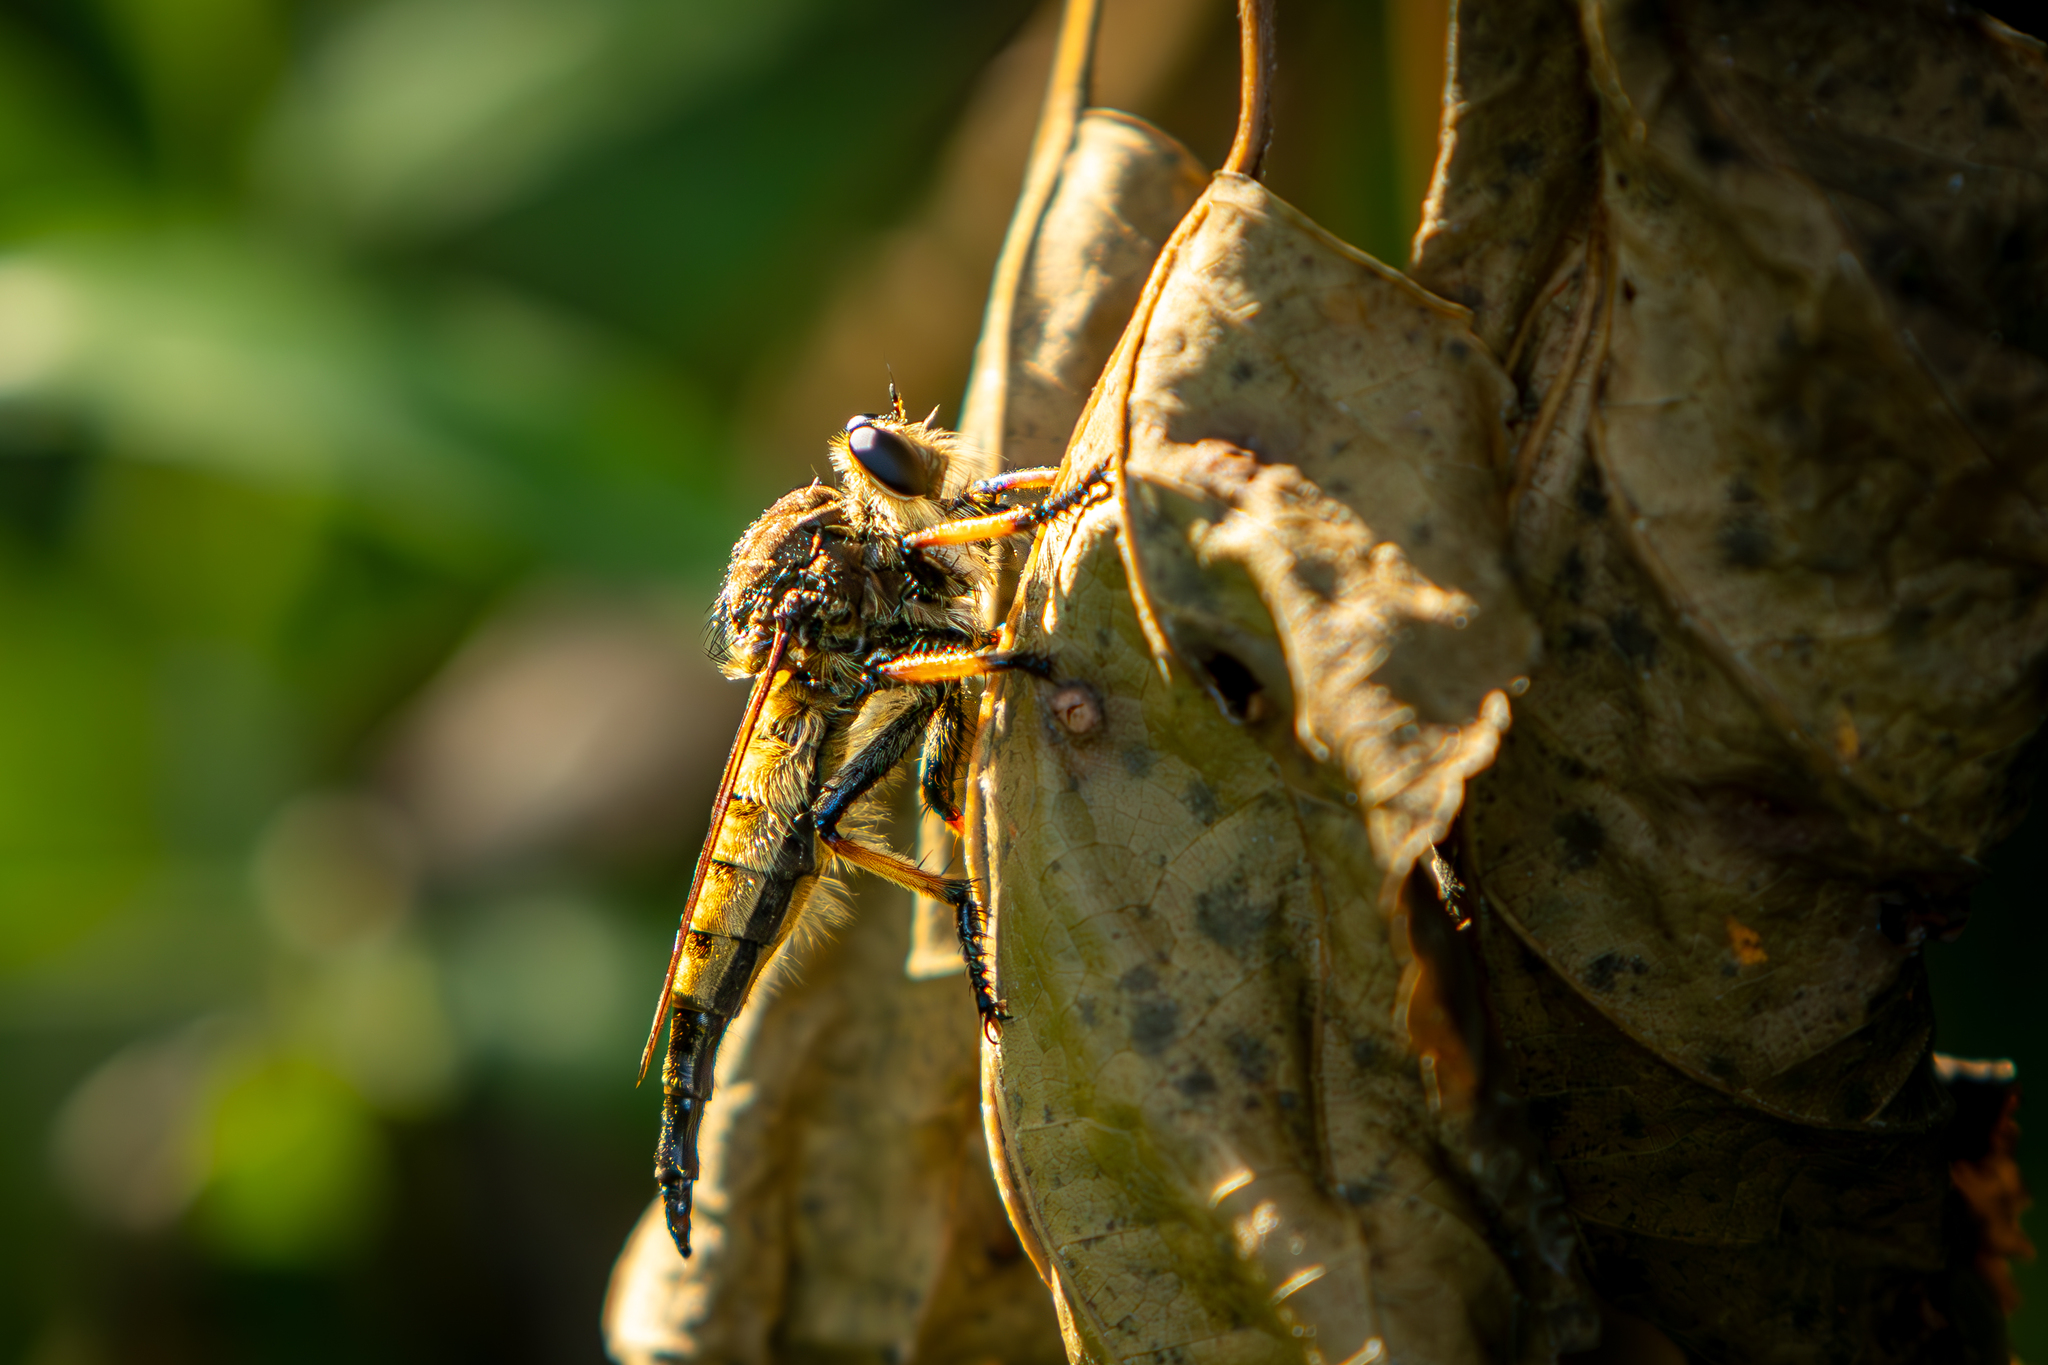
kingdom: Animalia
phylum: Arthropoda
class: Insecta
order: Diptera
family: Asilidae
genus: Promachus
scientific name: Promachus rufipes
